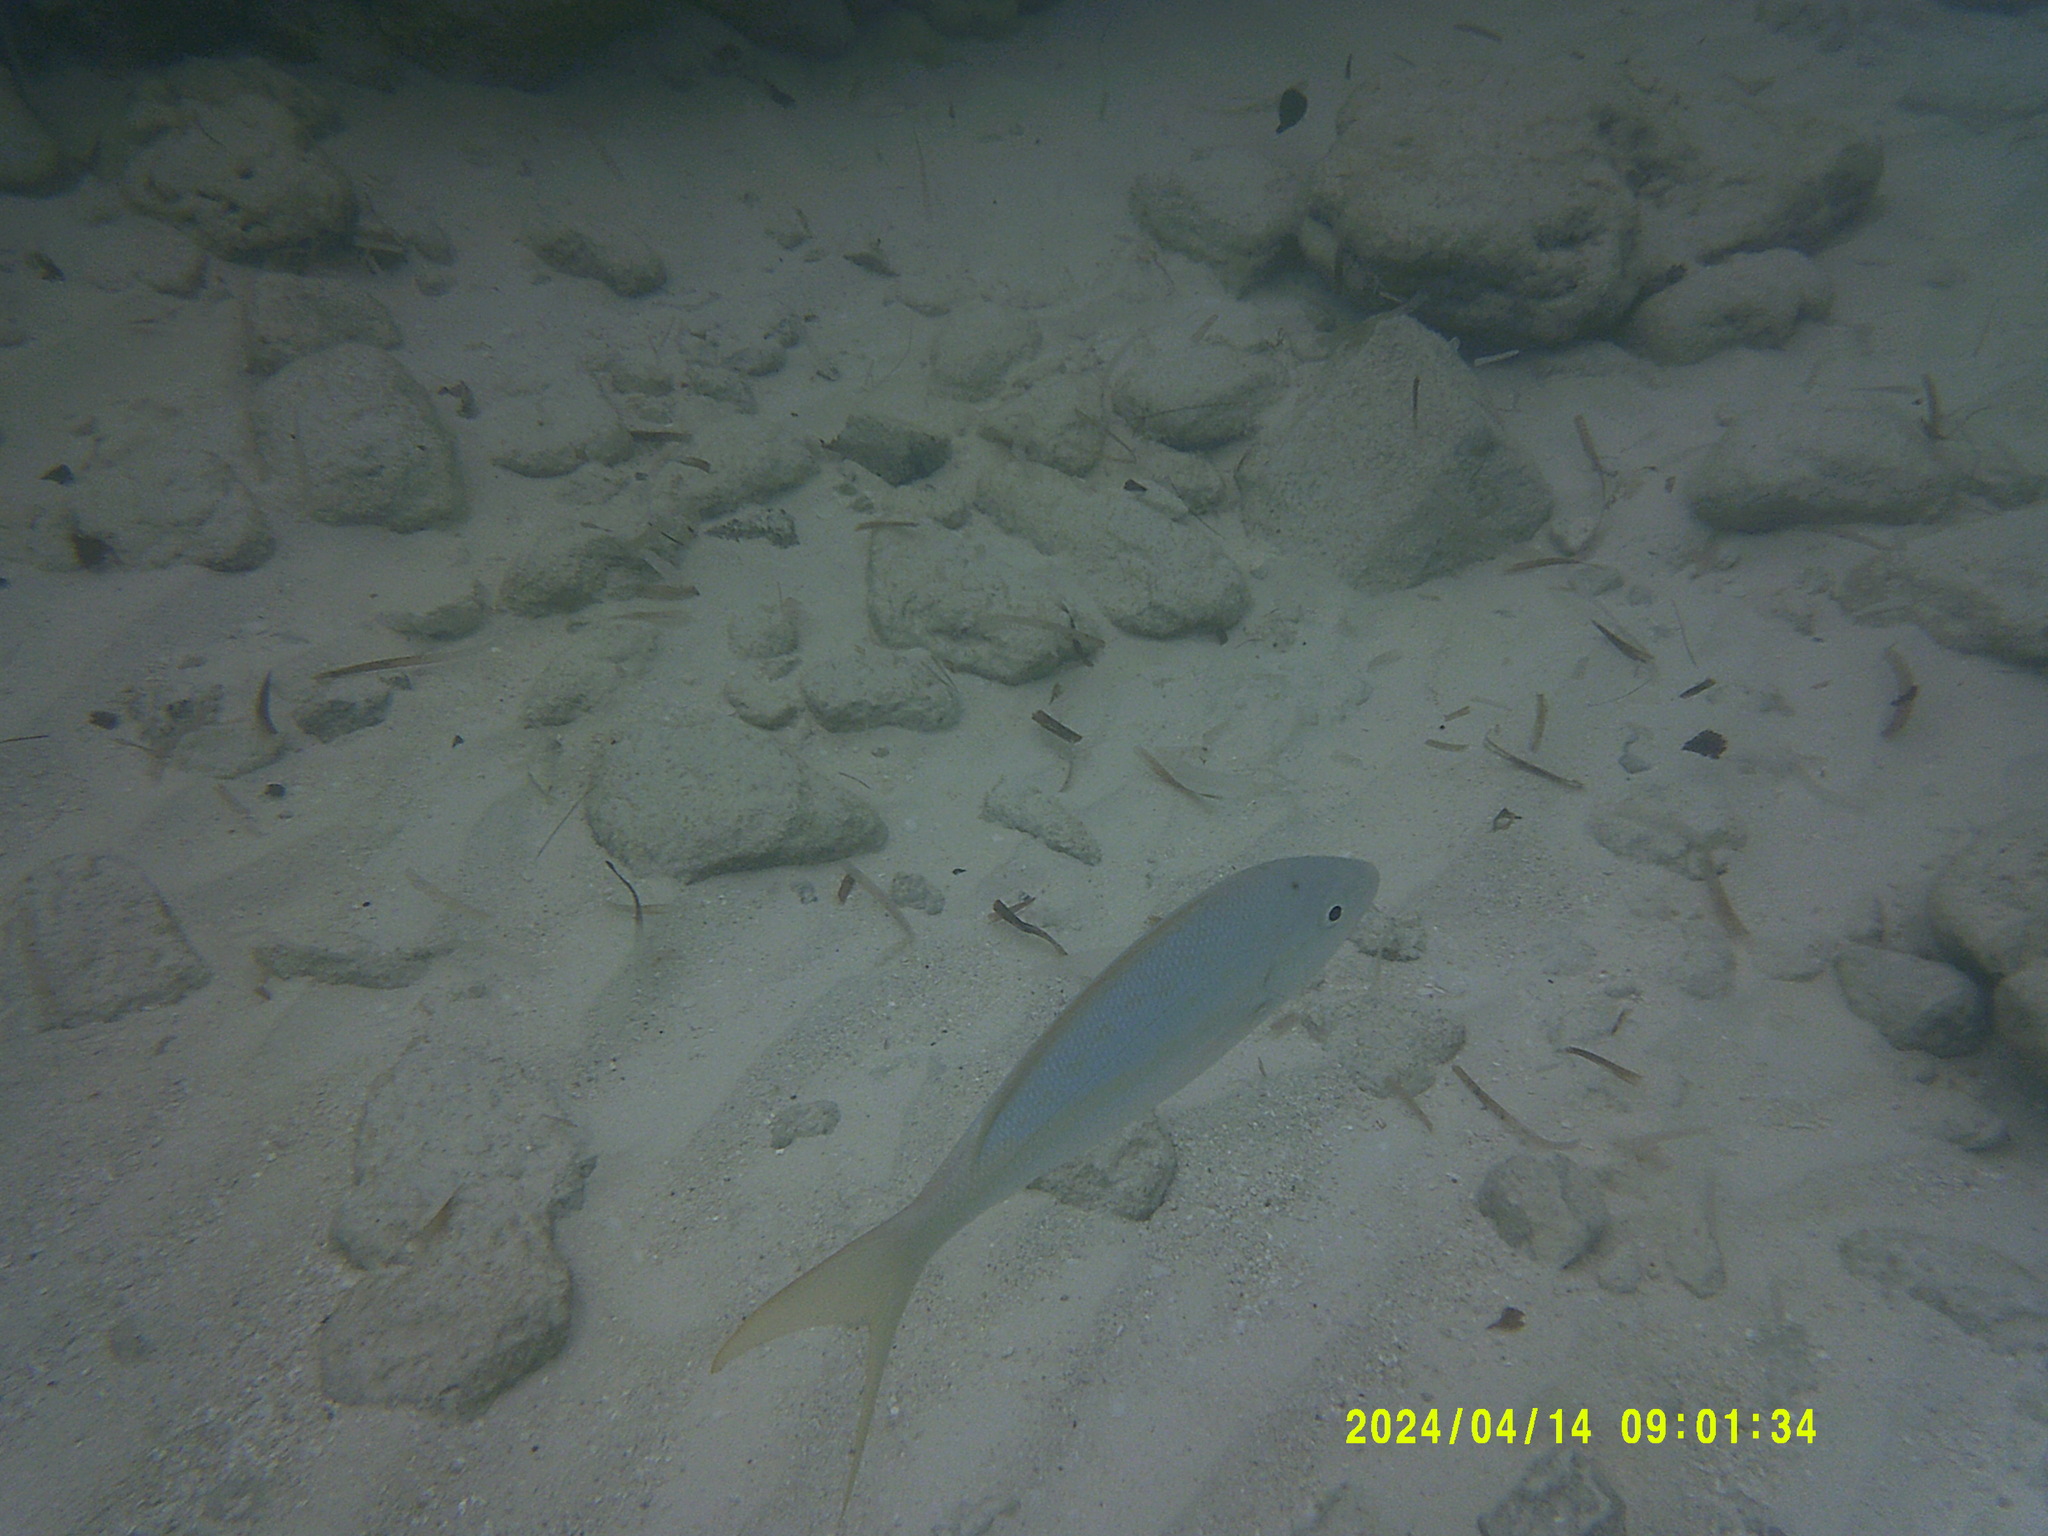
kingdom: Animalia
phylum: Chordata
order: Perciformes
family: Lutjanidae
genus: Ocyurus
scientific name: Ocyurus chrysurus
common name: Yellowtail snapper
